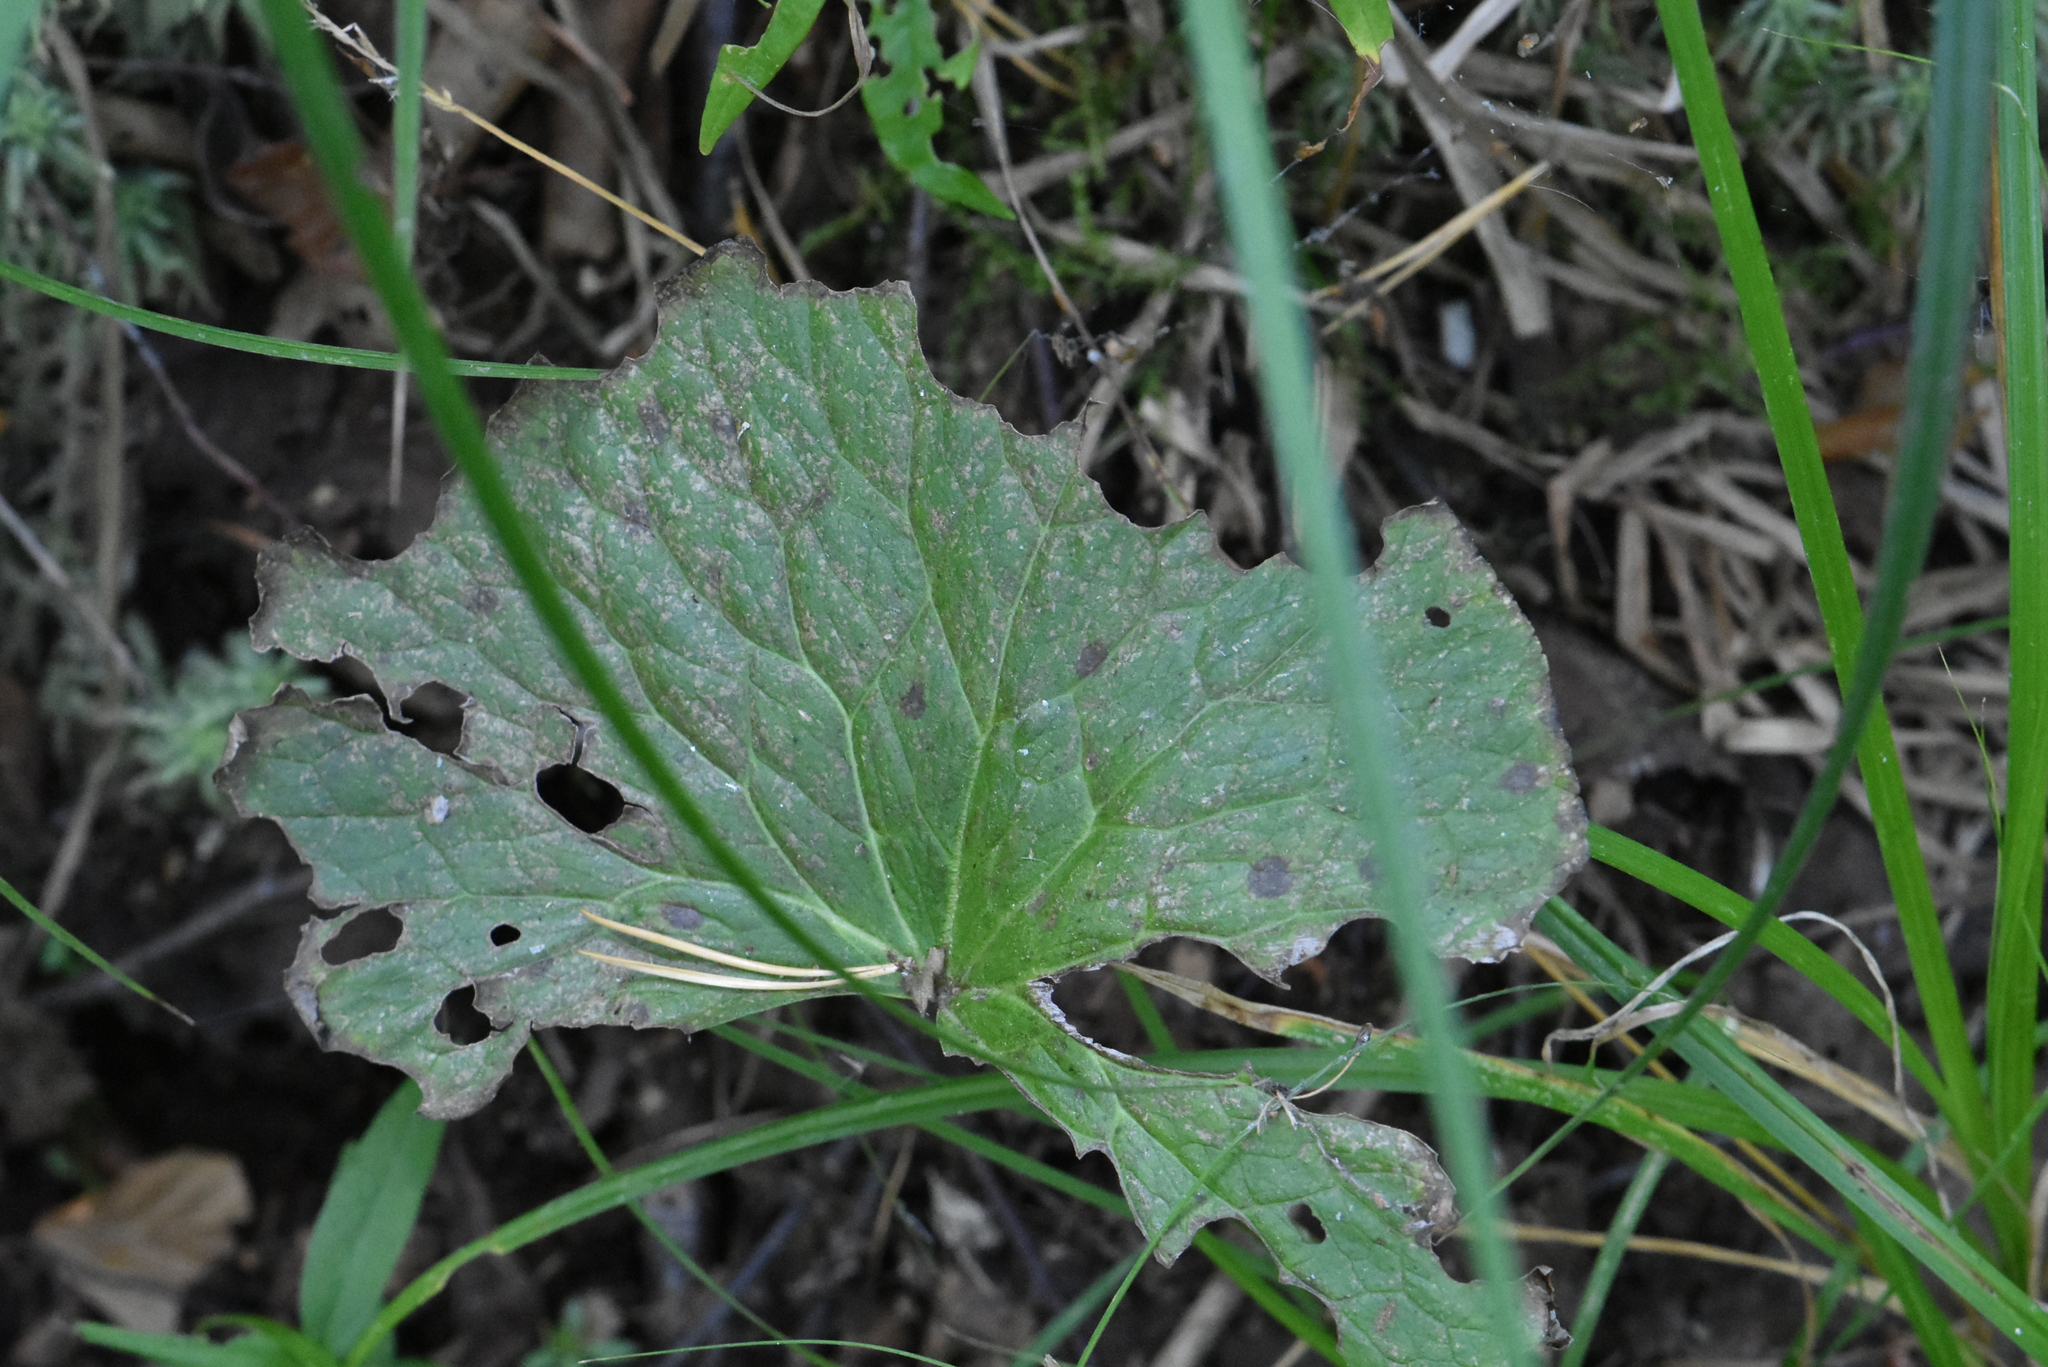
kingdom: Plantae
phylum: Tracheophyta
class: Magnoliopsida
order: Ranunculales
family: Ranunculaceae
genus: Caltha
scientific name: Caltha palustris
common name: Marsh marigold
